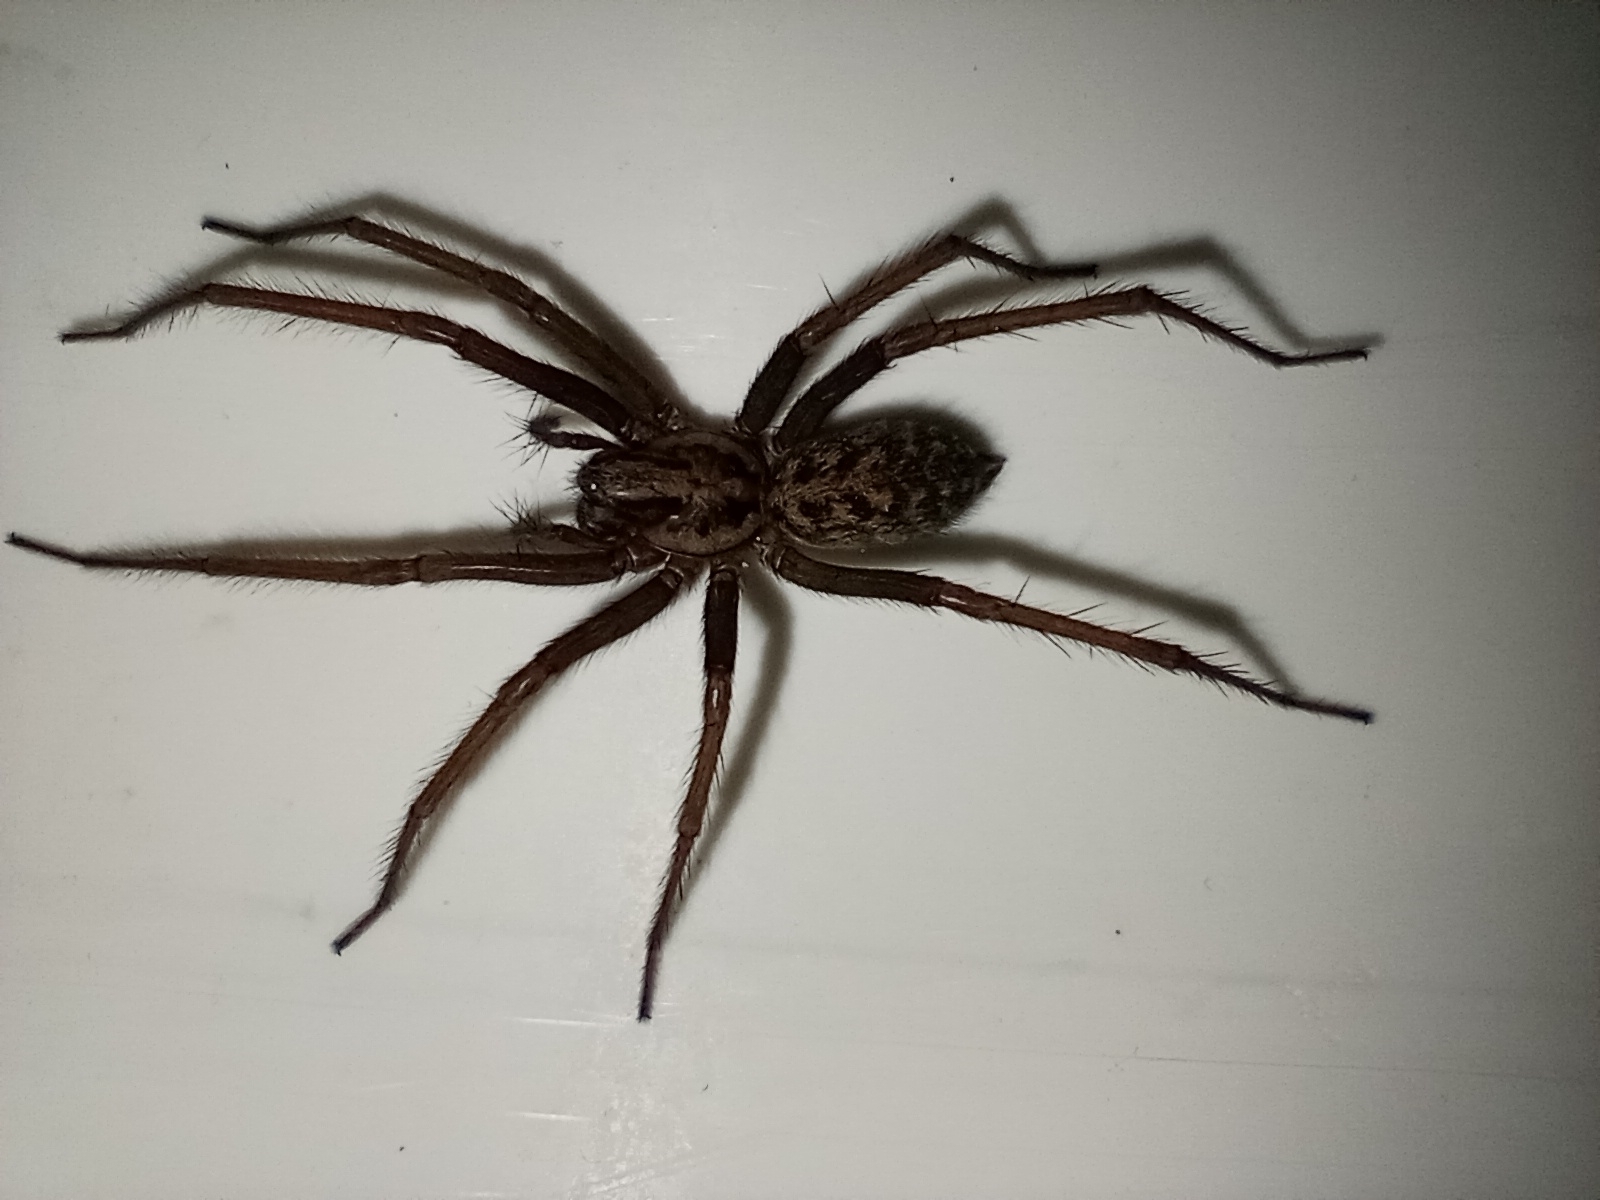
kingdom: Animalia
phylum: Arthropoda
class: Arachnida
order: Araneae
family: Agelenidae
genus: Eratigena
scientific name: Eratigena duellica
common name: Giant house spider
